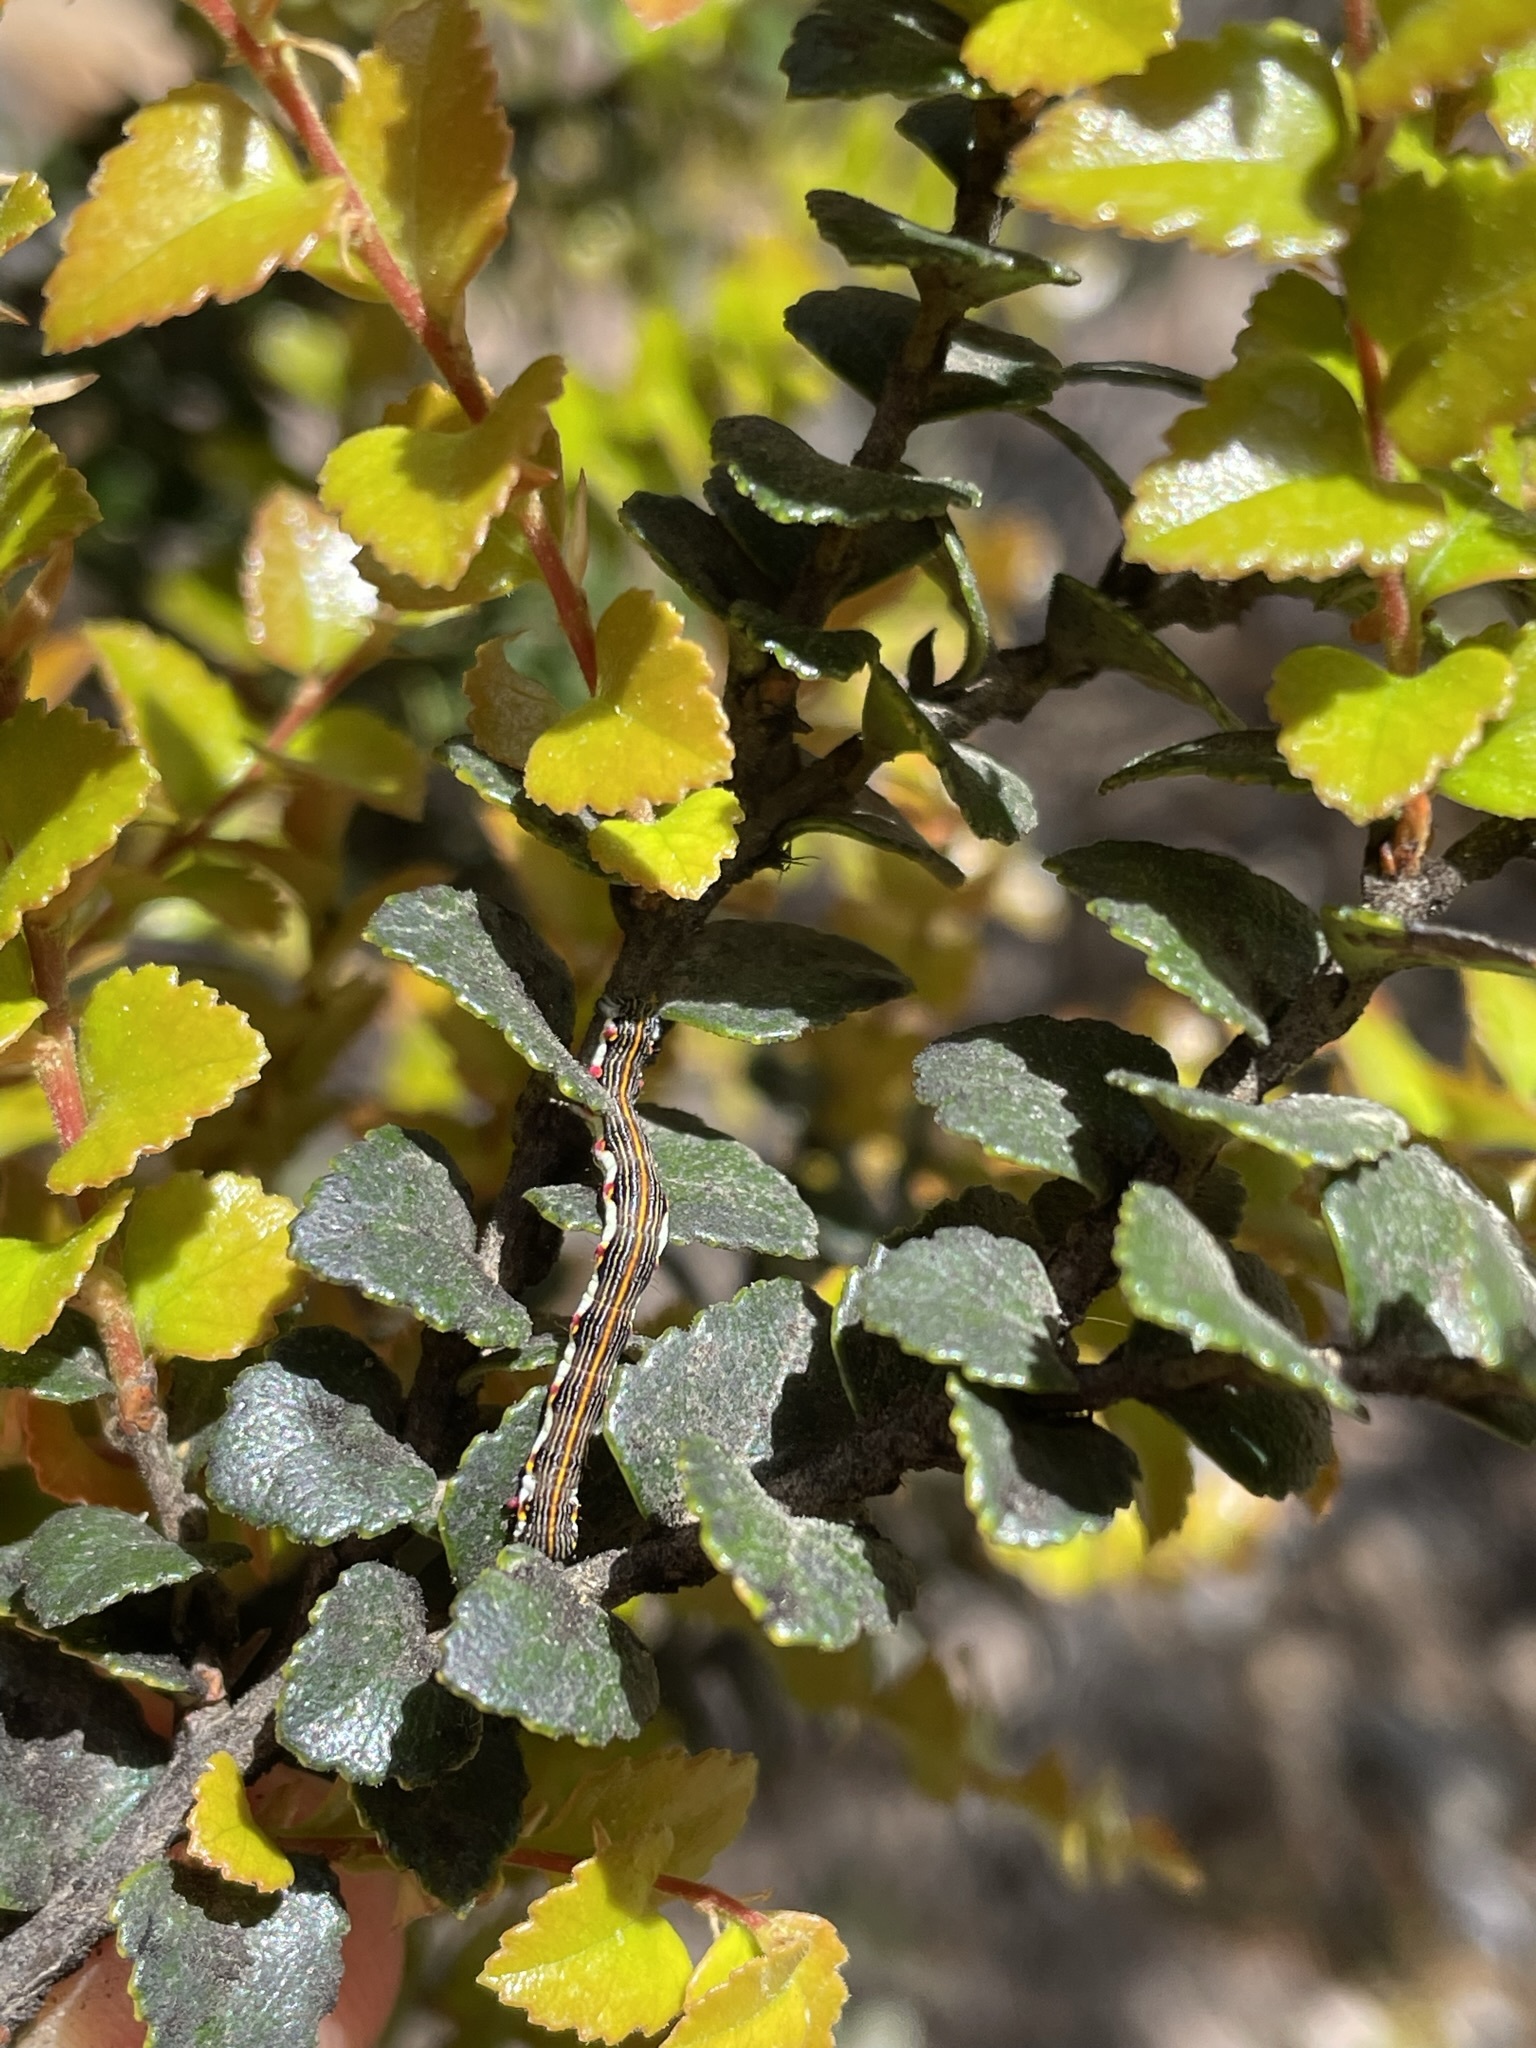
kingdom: Plantae
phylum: Tracheophyta
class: Magnoliopsida
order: Fagales
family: Nothofagaceae
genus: Nothofagus
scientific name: Nothofagus cunninghamii
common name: Myrtle beech
